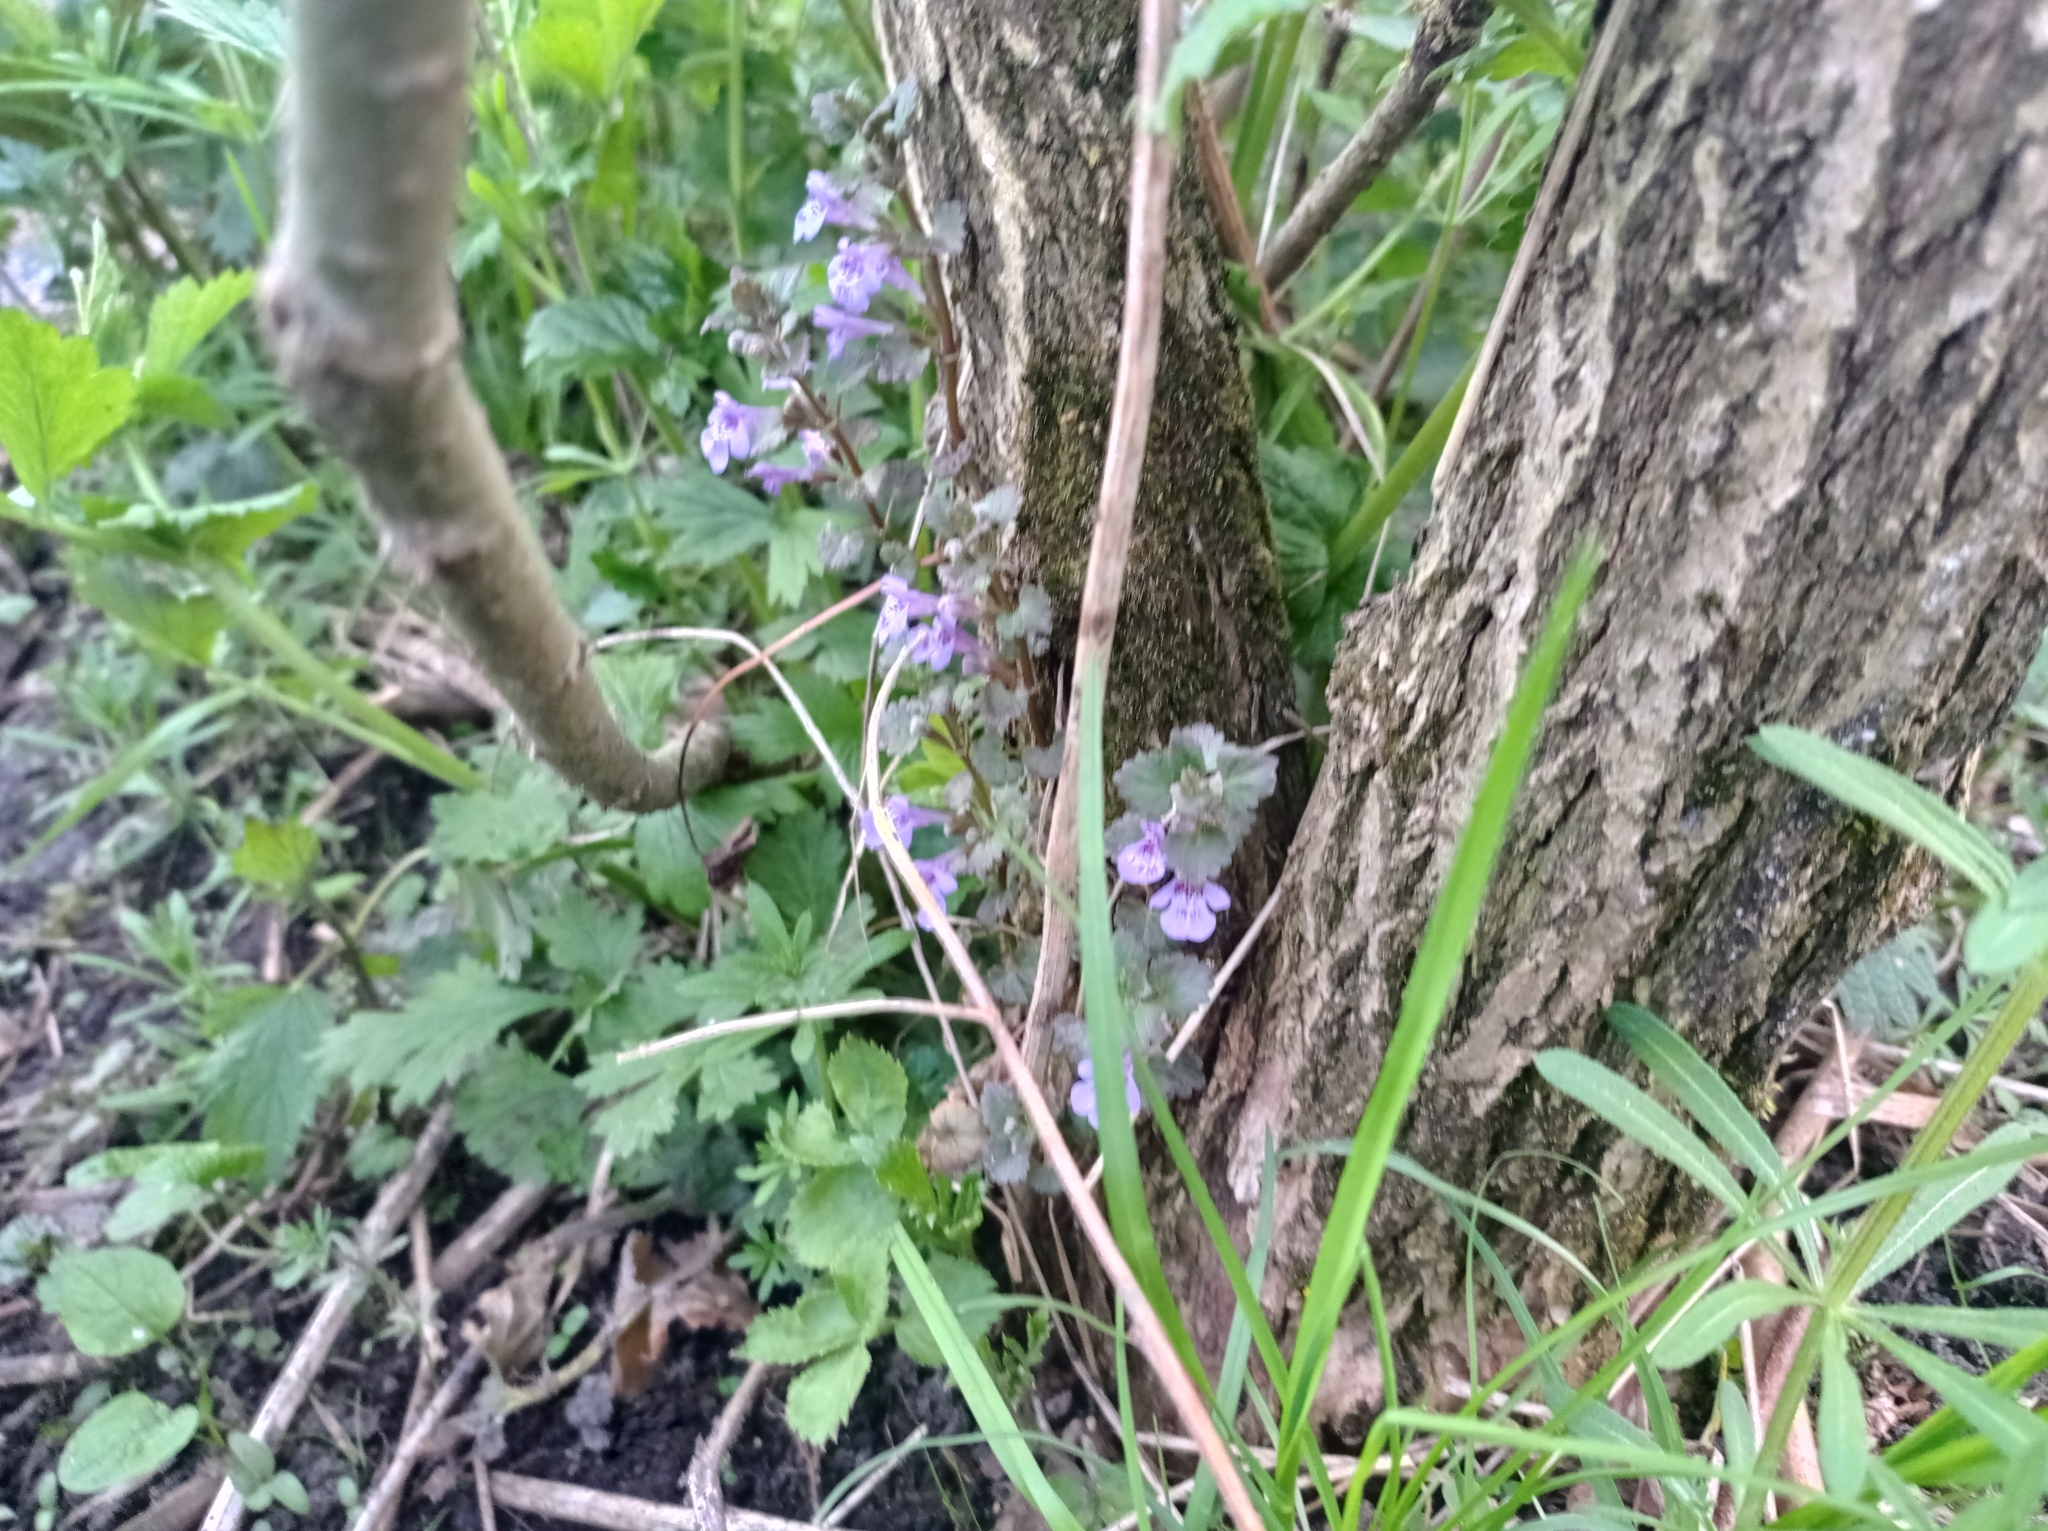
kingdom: Plantae
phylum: Tracheophyta
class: Magnoliopsida
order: Lamiales
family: Lamiaceae
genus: Glechoma
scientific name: Glechoma hederacea
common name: Ground ivy
